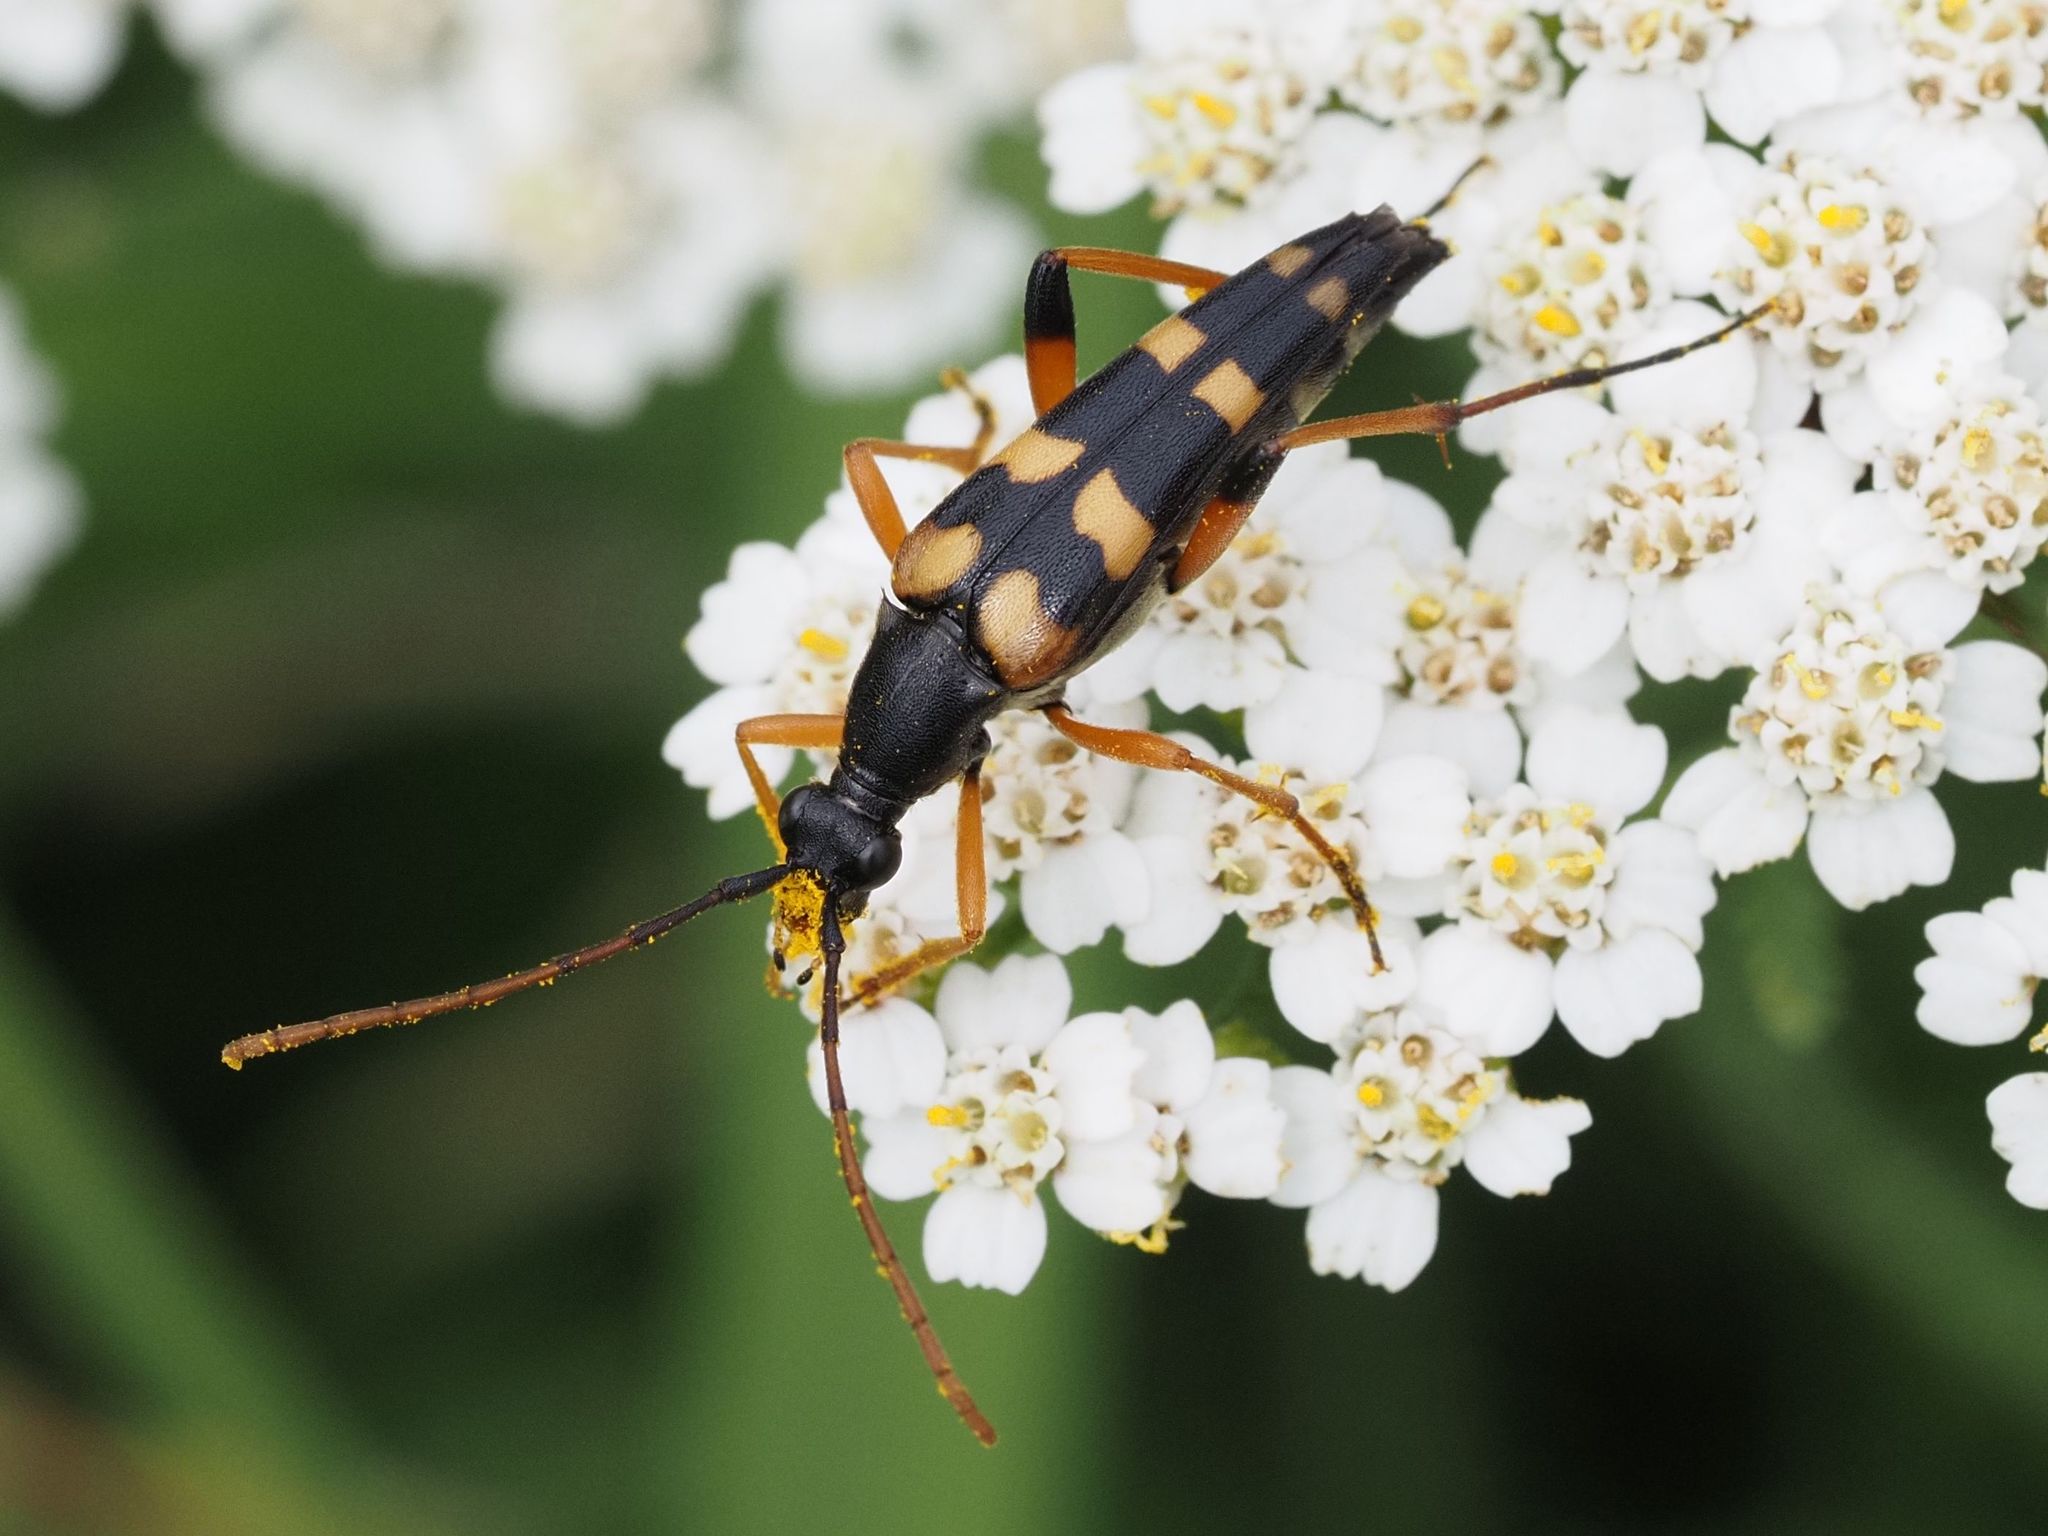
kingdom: Animalia
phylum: Arthropoda
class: Insecta
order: Coleoptera
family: Cerambycidae
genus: Strangalia
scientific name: Strangalia attenuata
